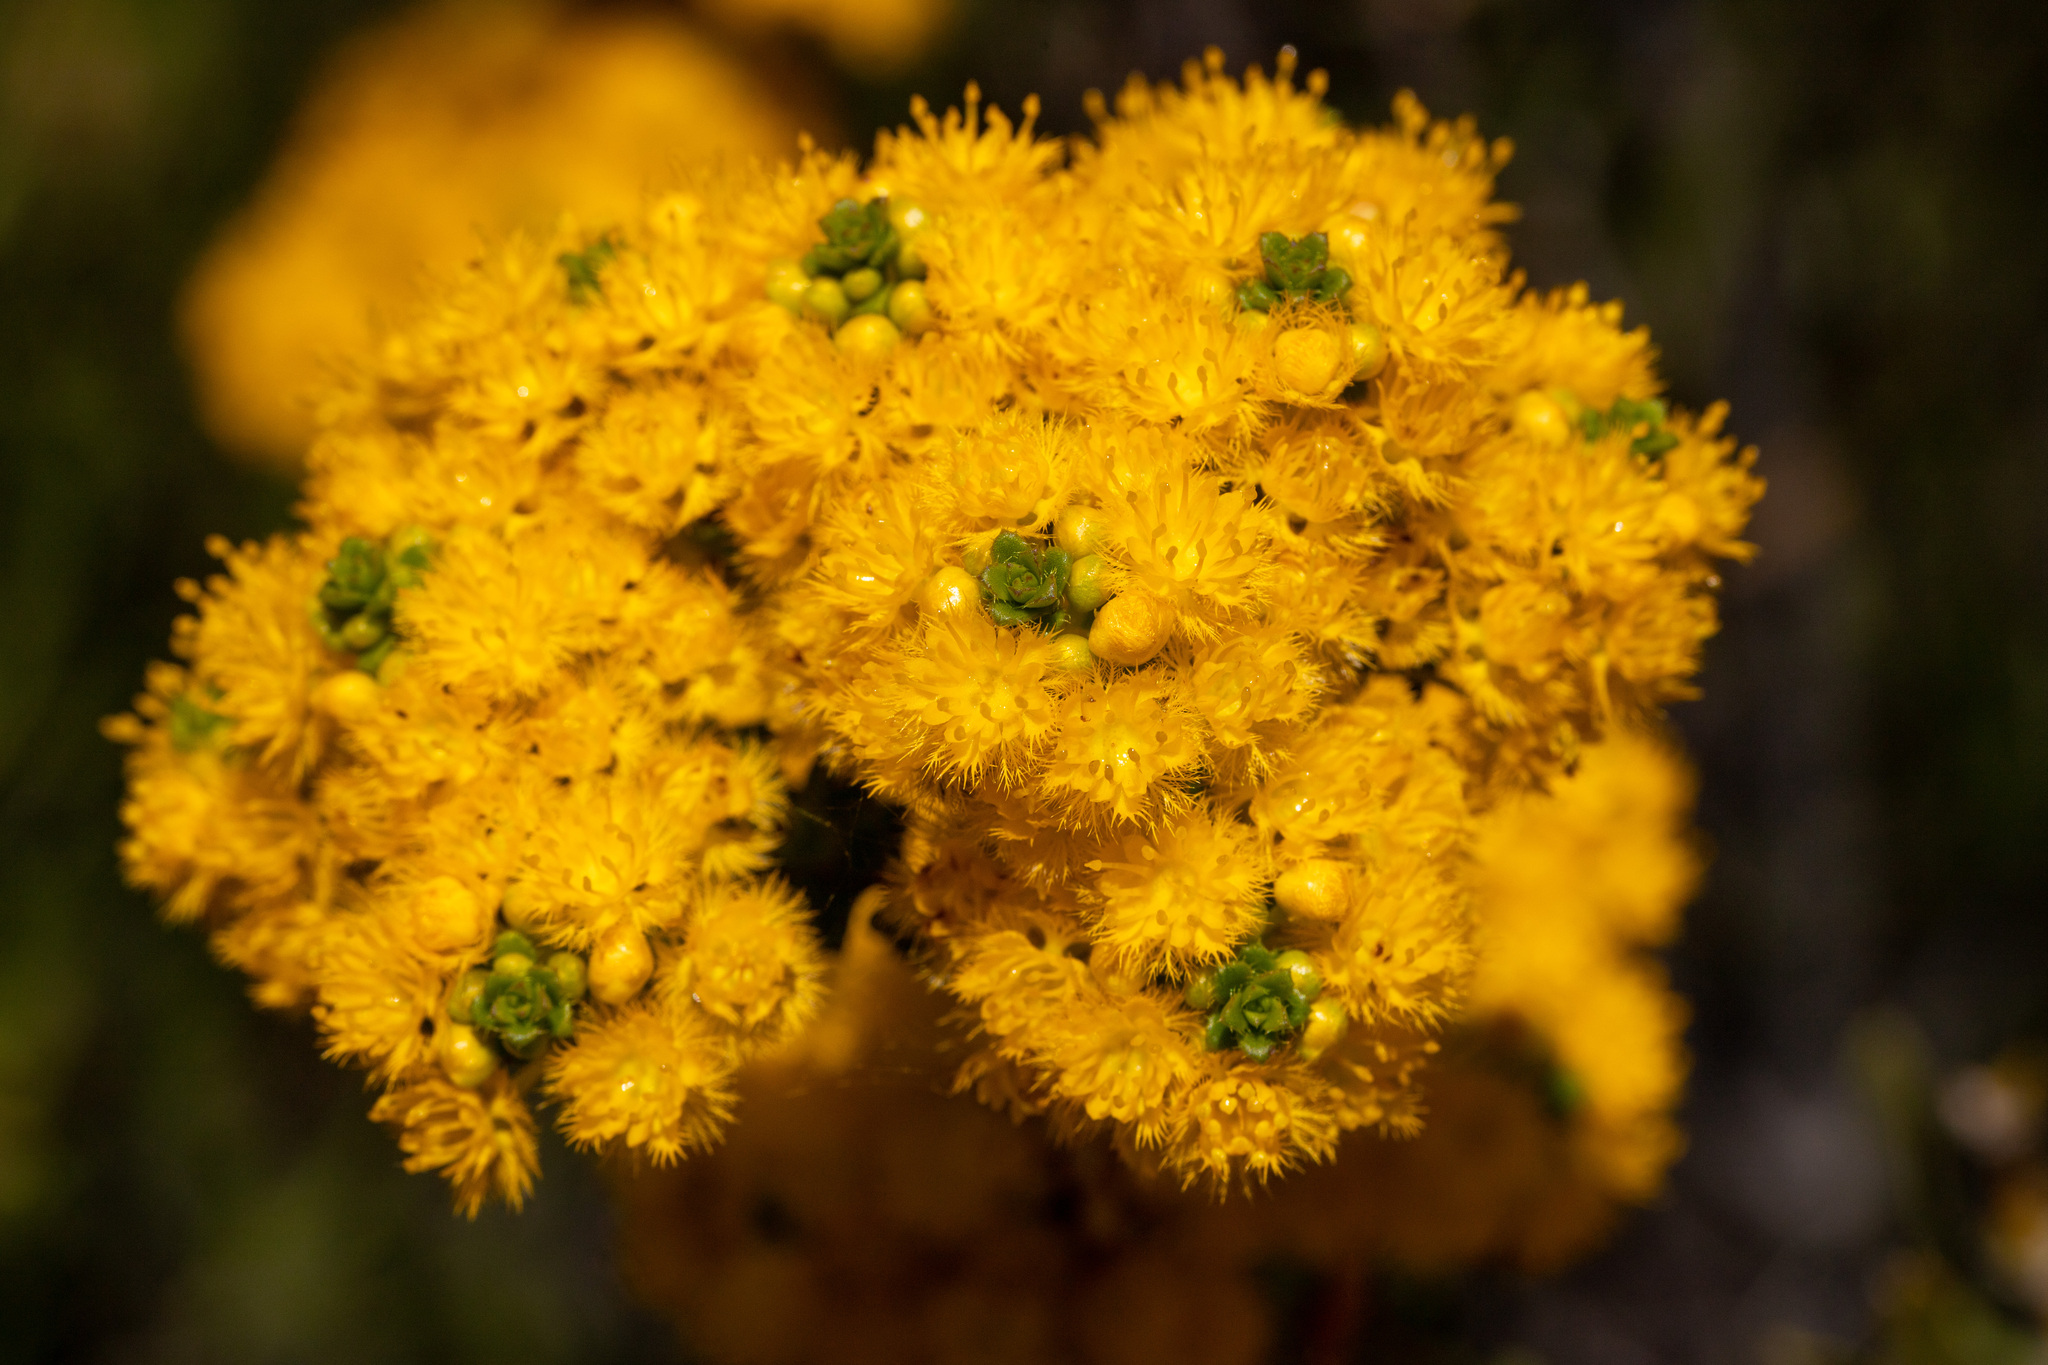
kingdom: Plantae
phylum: Tracheophyta
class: Magnoliopsida
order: Myrtales
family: Myrtaceae
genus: Verticordia
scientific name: Verticordia serrata
